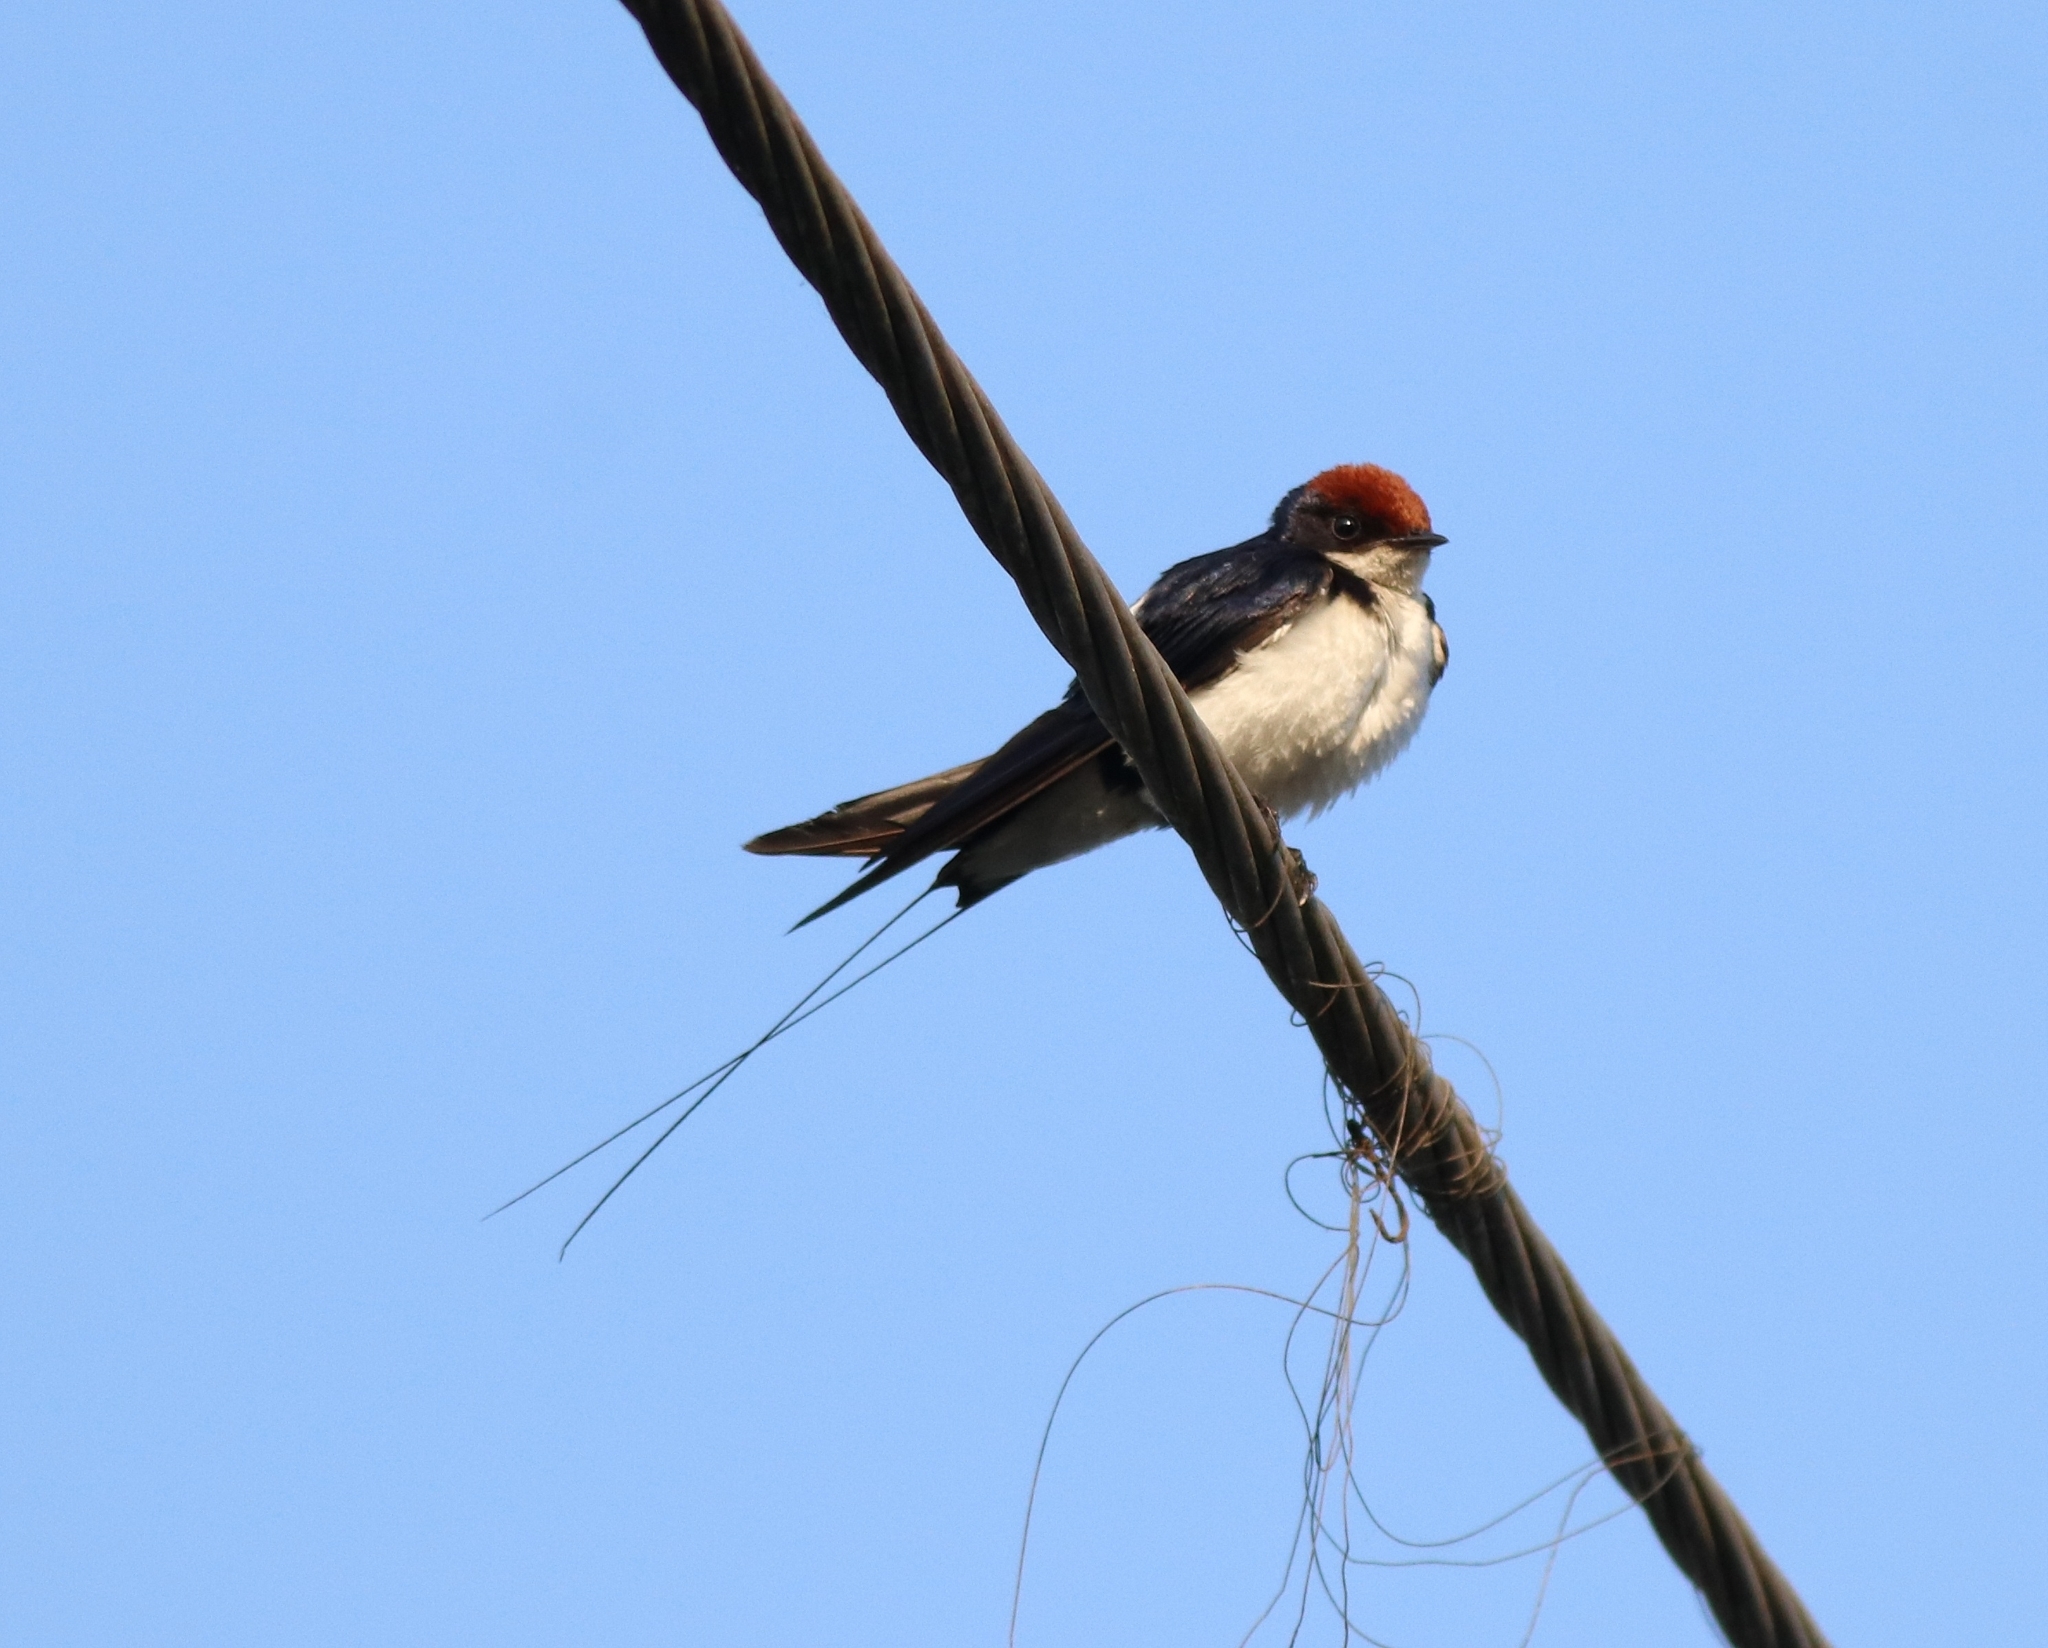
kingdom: Animalia
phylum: Chordata
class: Aves
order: Passeriformes
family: Hirundinidae
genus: Hirundo
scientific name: Hirundo smithii
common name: Wire-tailed swallow
